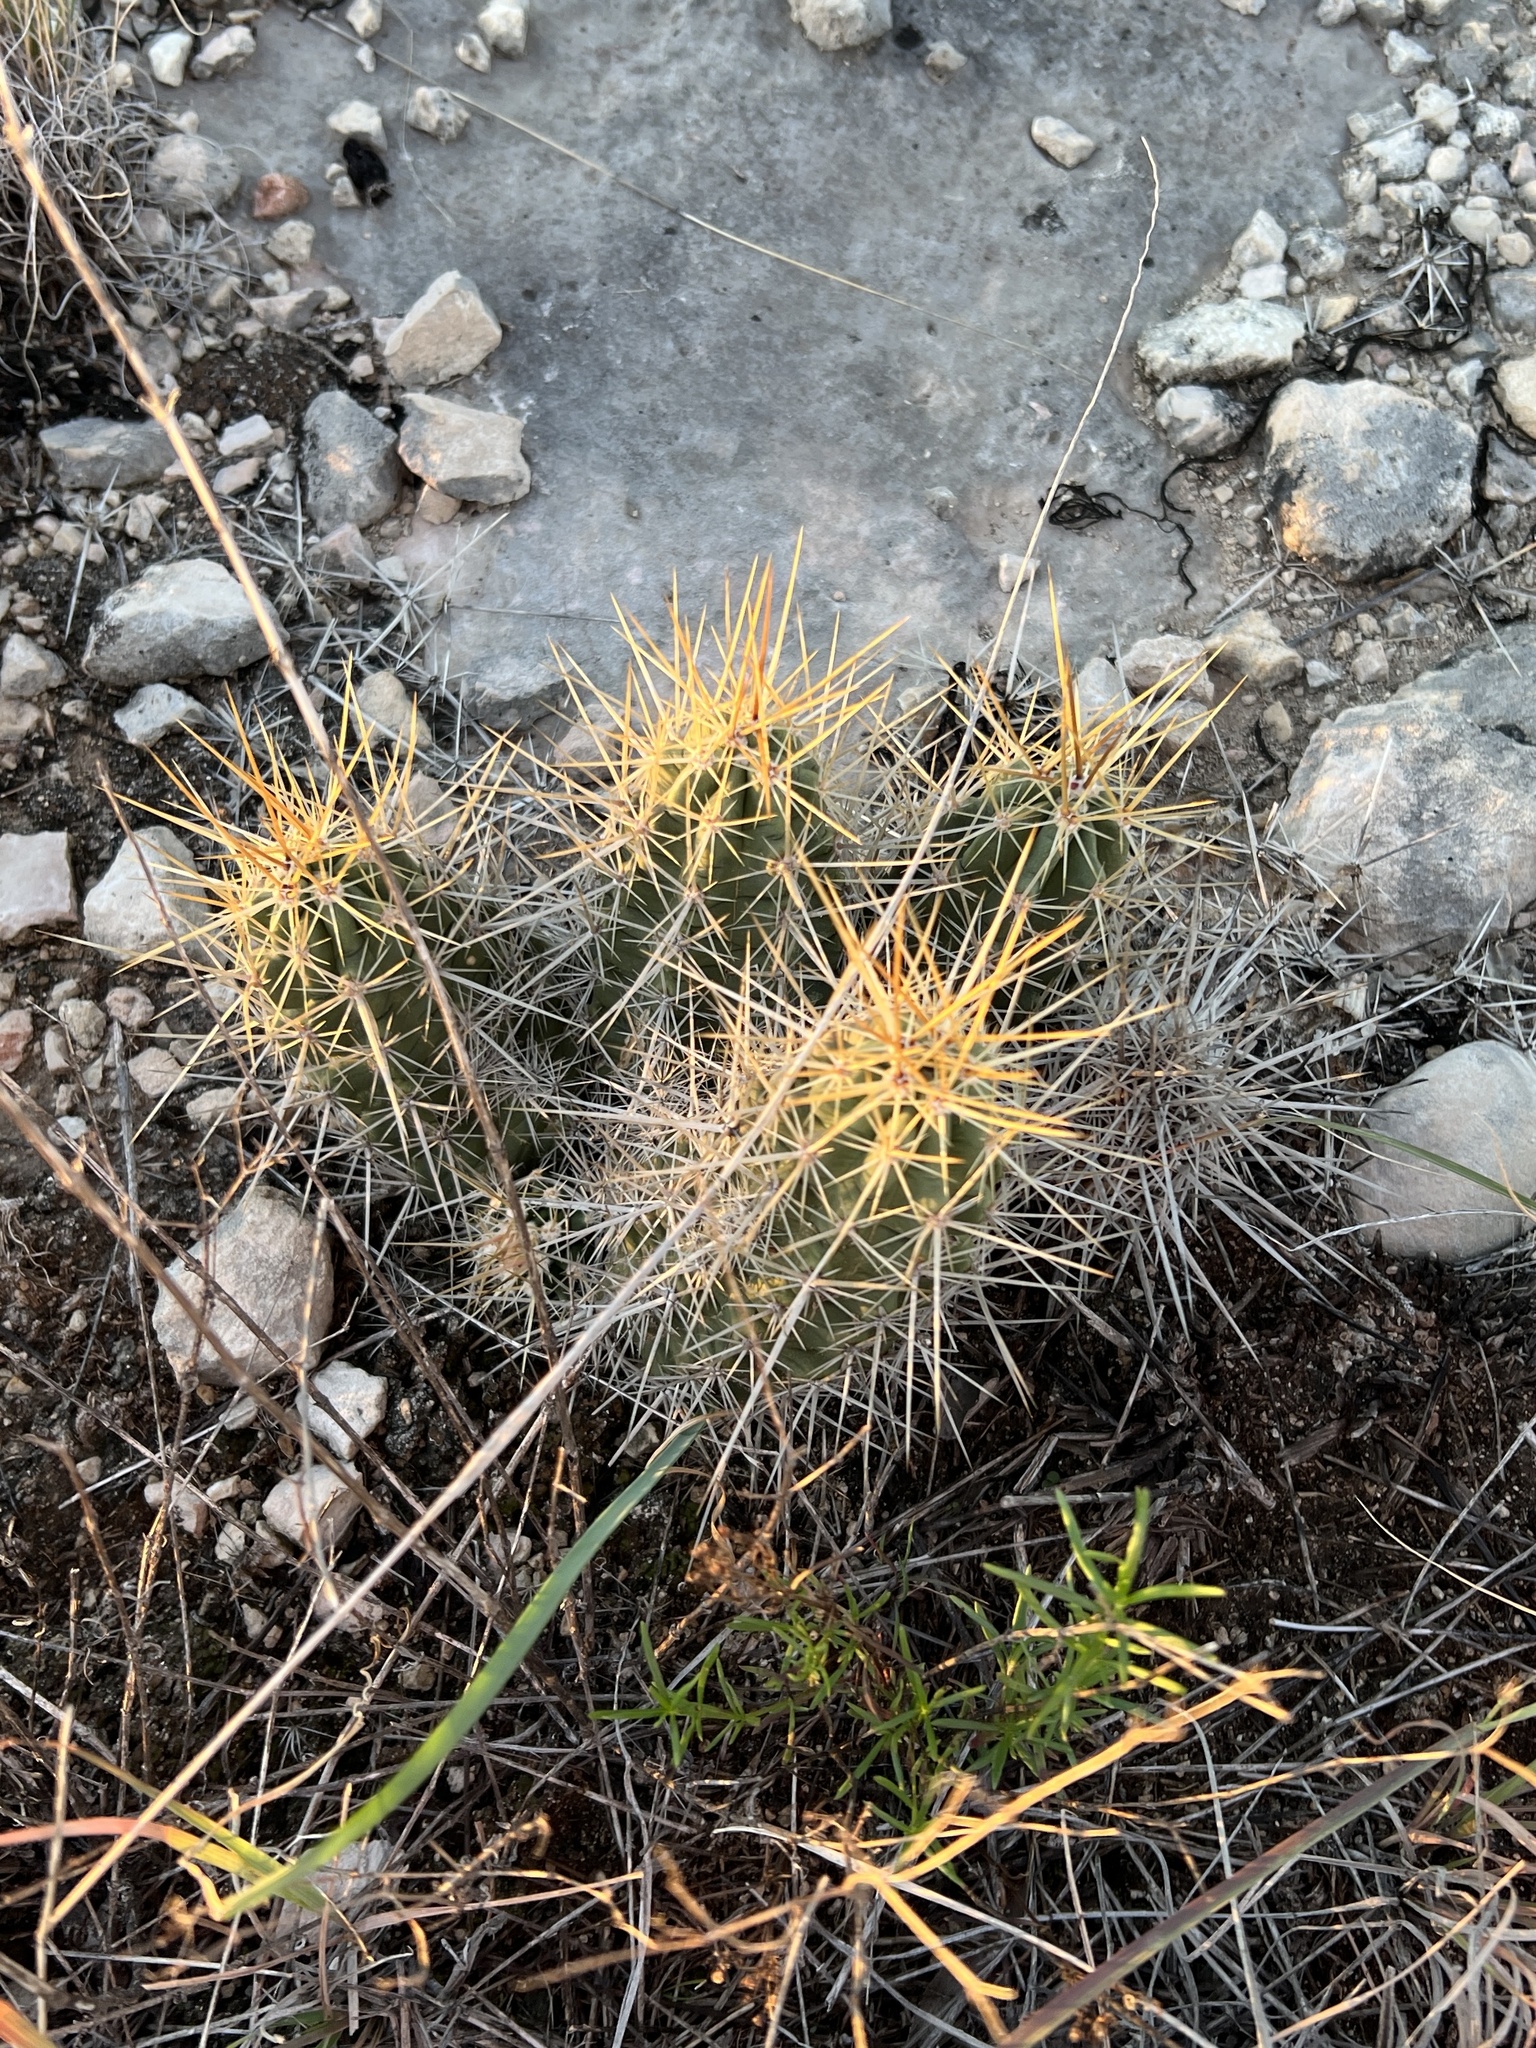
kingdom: Plantae
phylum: Tracheophyta
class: Magnoliopsida
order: Caryophyllales
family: Cactaceae
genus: Echinocereus
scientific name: Echinocereus enneacanthus
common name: Pitaya
